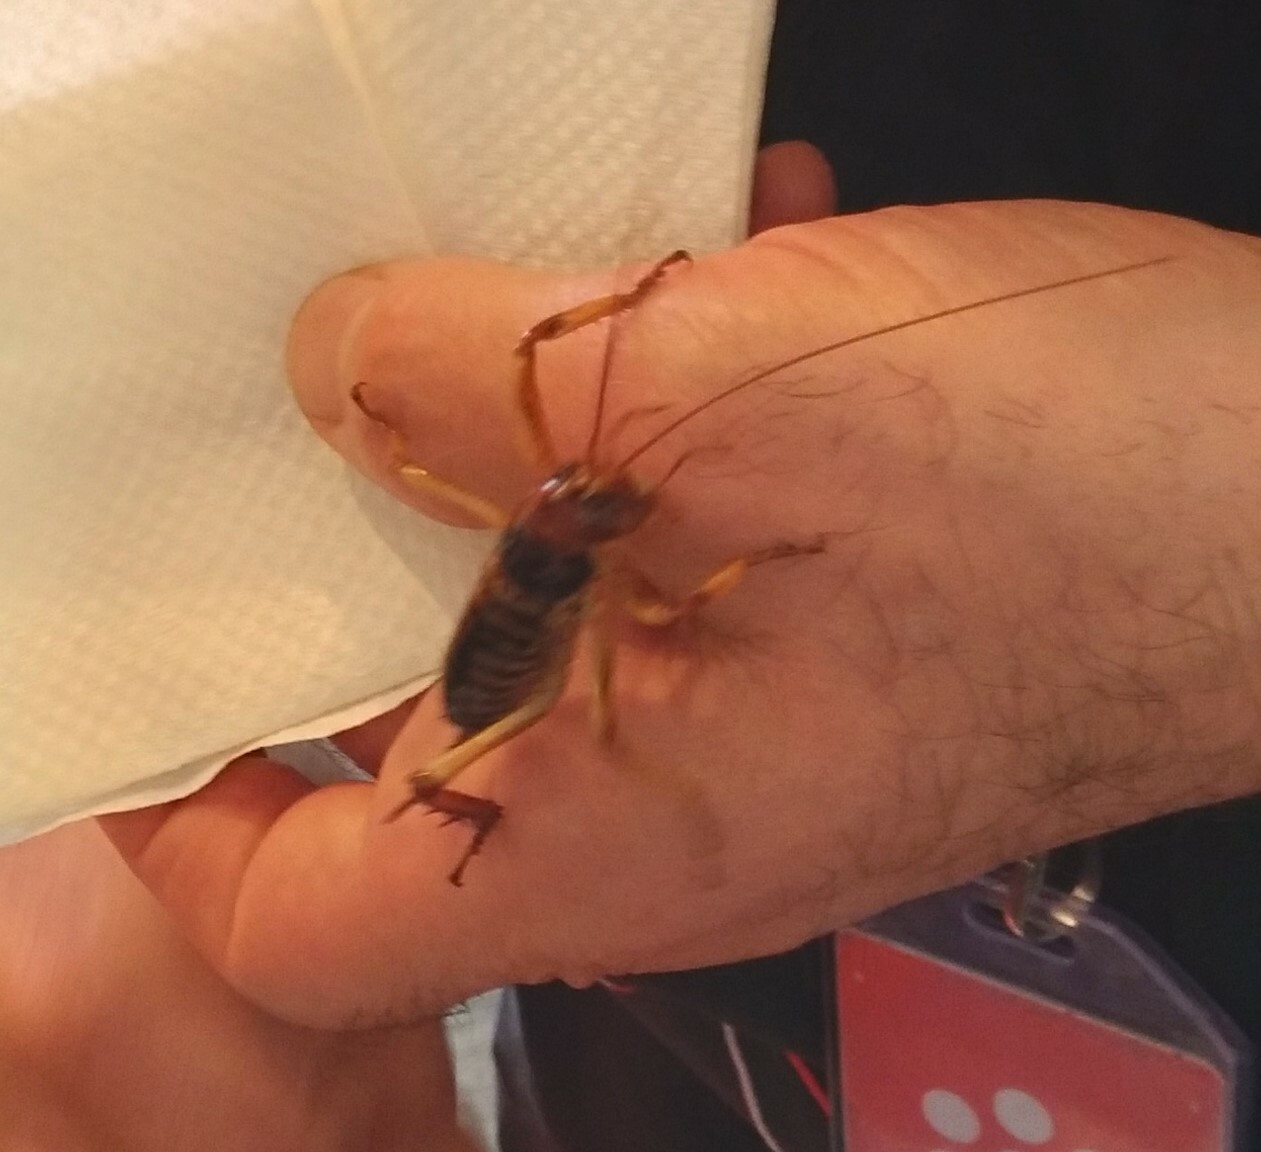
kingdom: Animalia
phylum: Arthropoda
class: Insecta
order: Orthoptera
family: Anostostomatidae
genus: Hemideina
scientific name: Hemideina femorata
